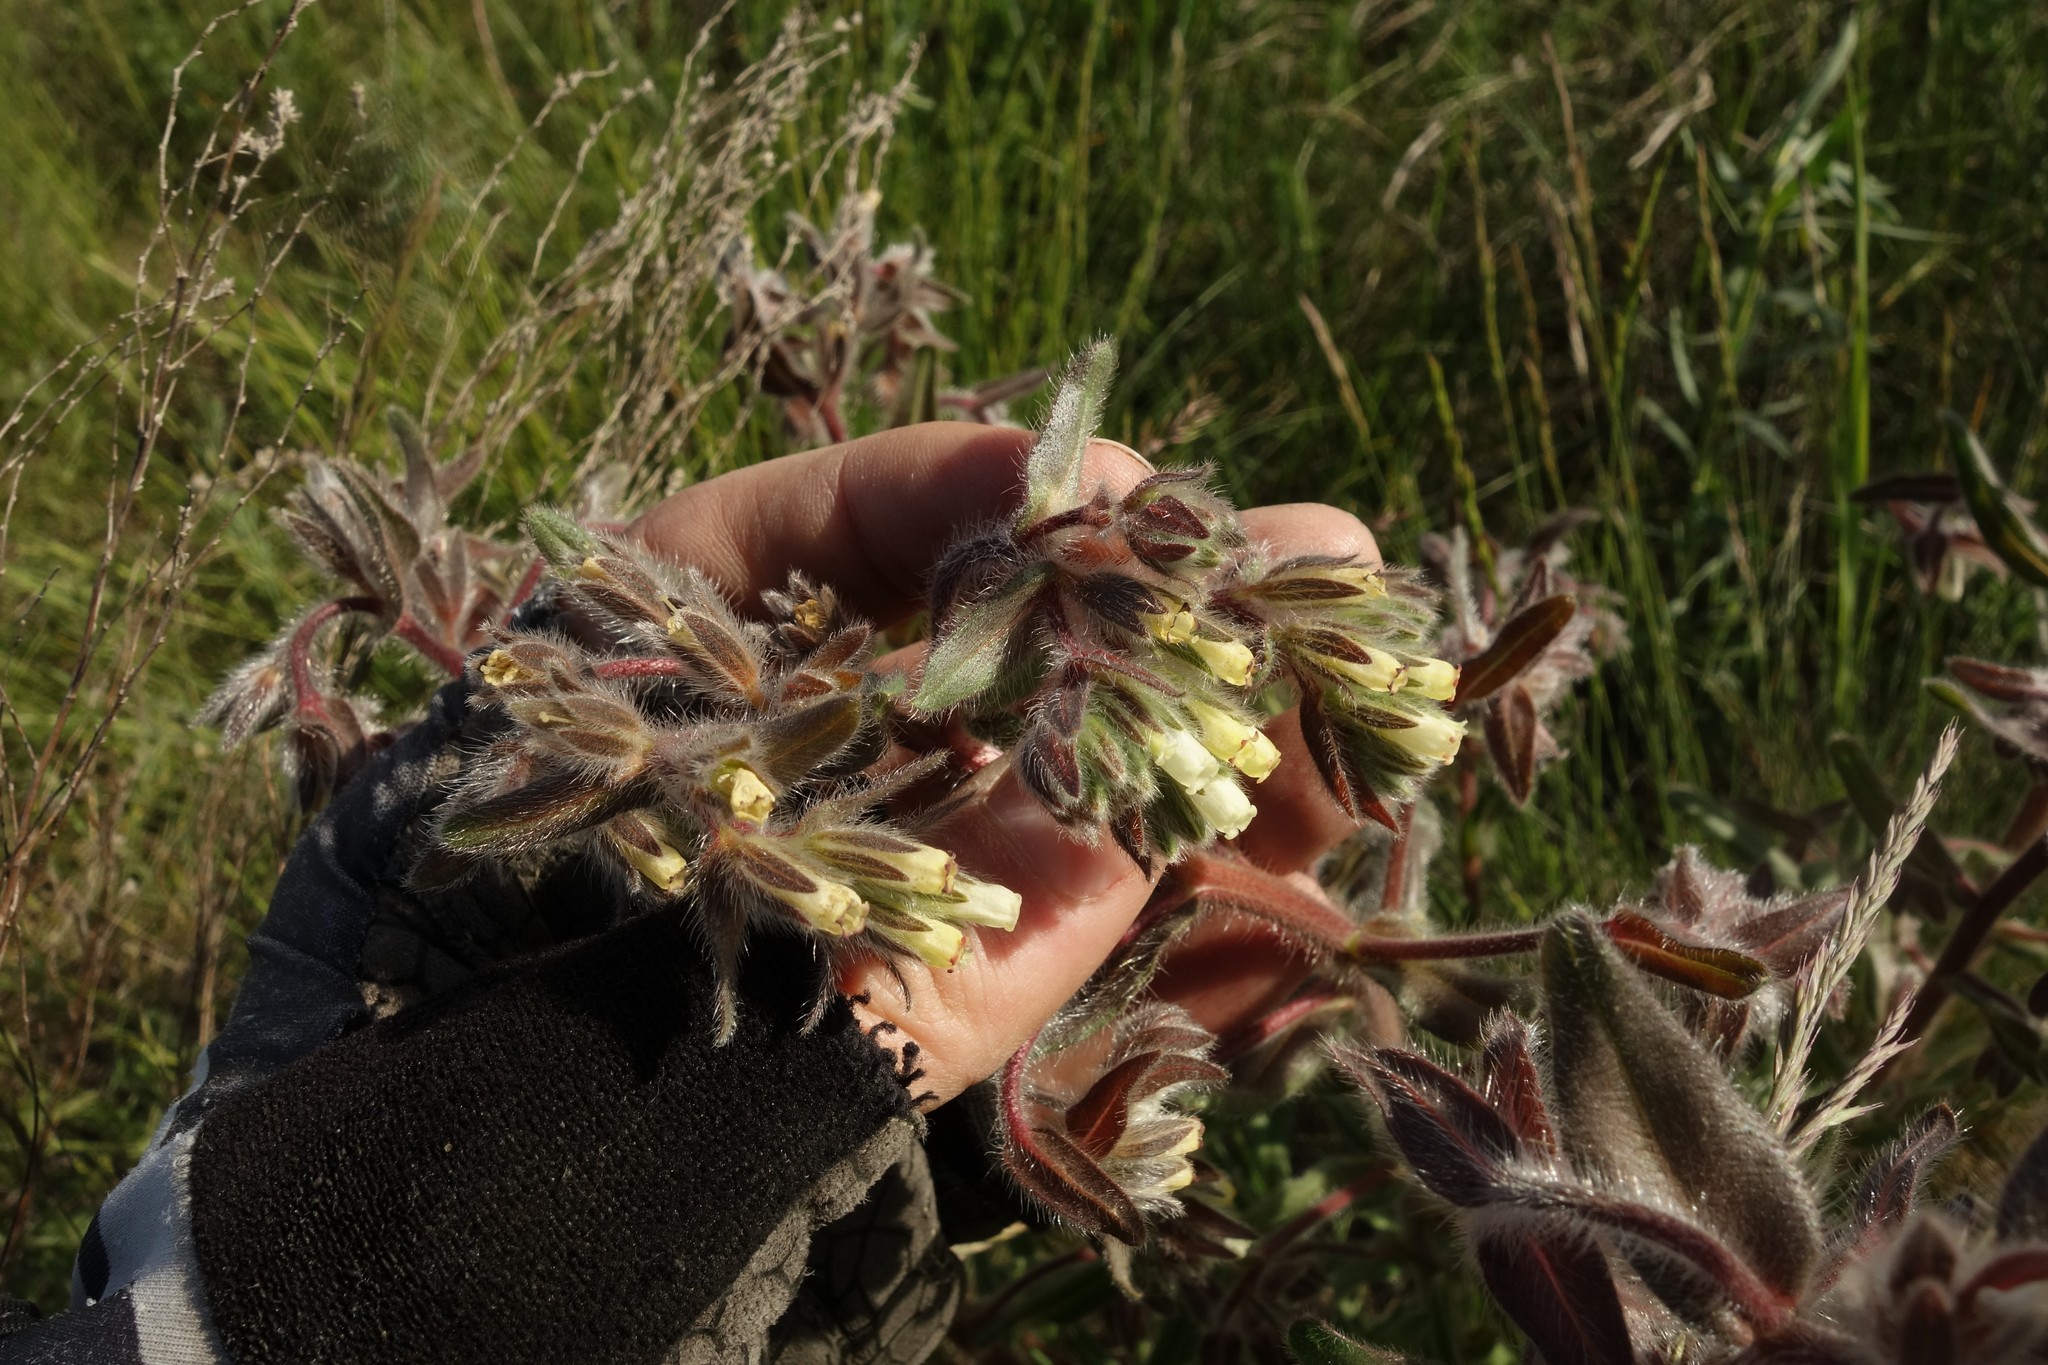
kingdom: Plantae
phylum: Tracheophyta
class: Magnoliopsida
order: Boraginales
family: Boraginaceae
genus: Onosma
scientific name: Onosma tinctoria
